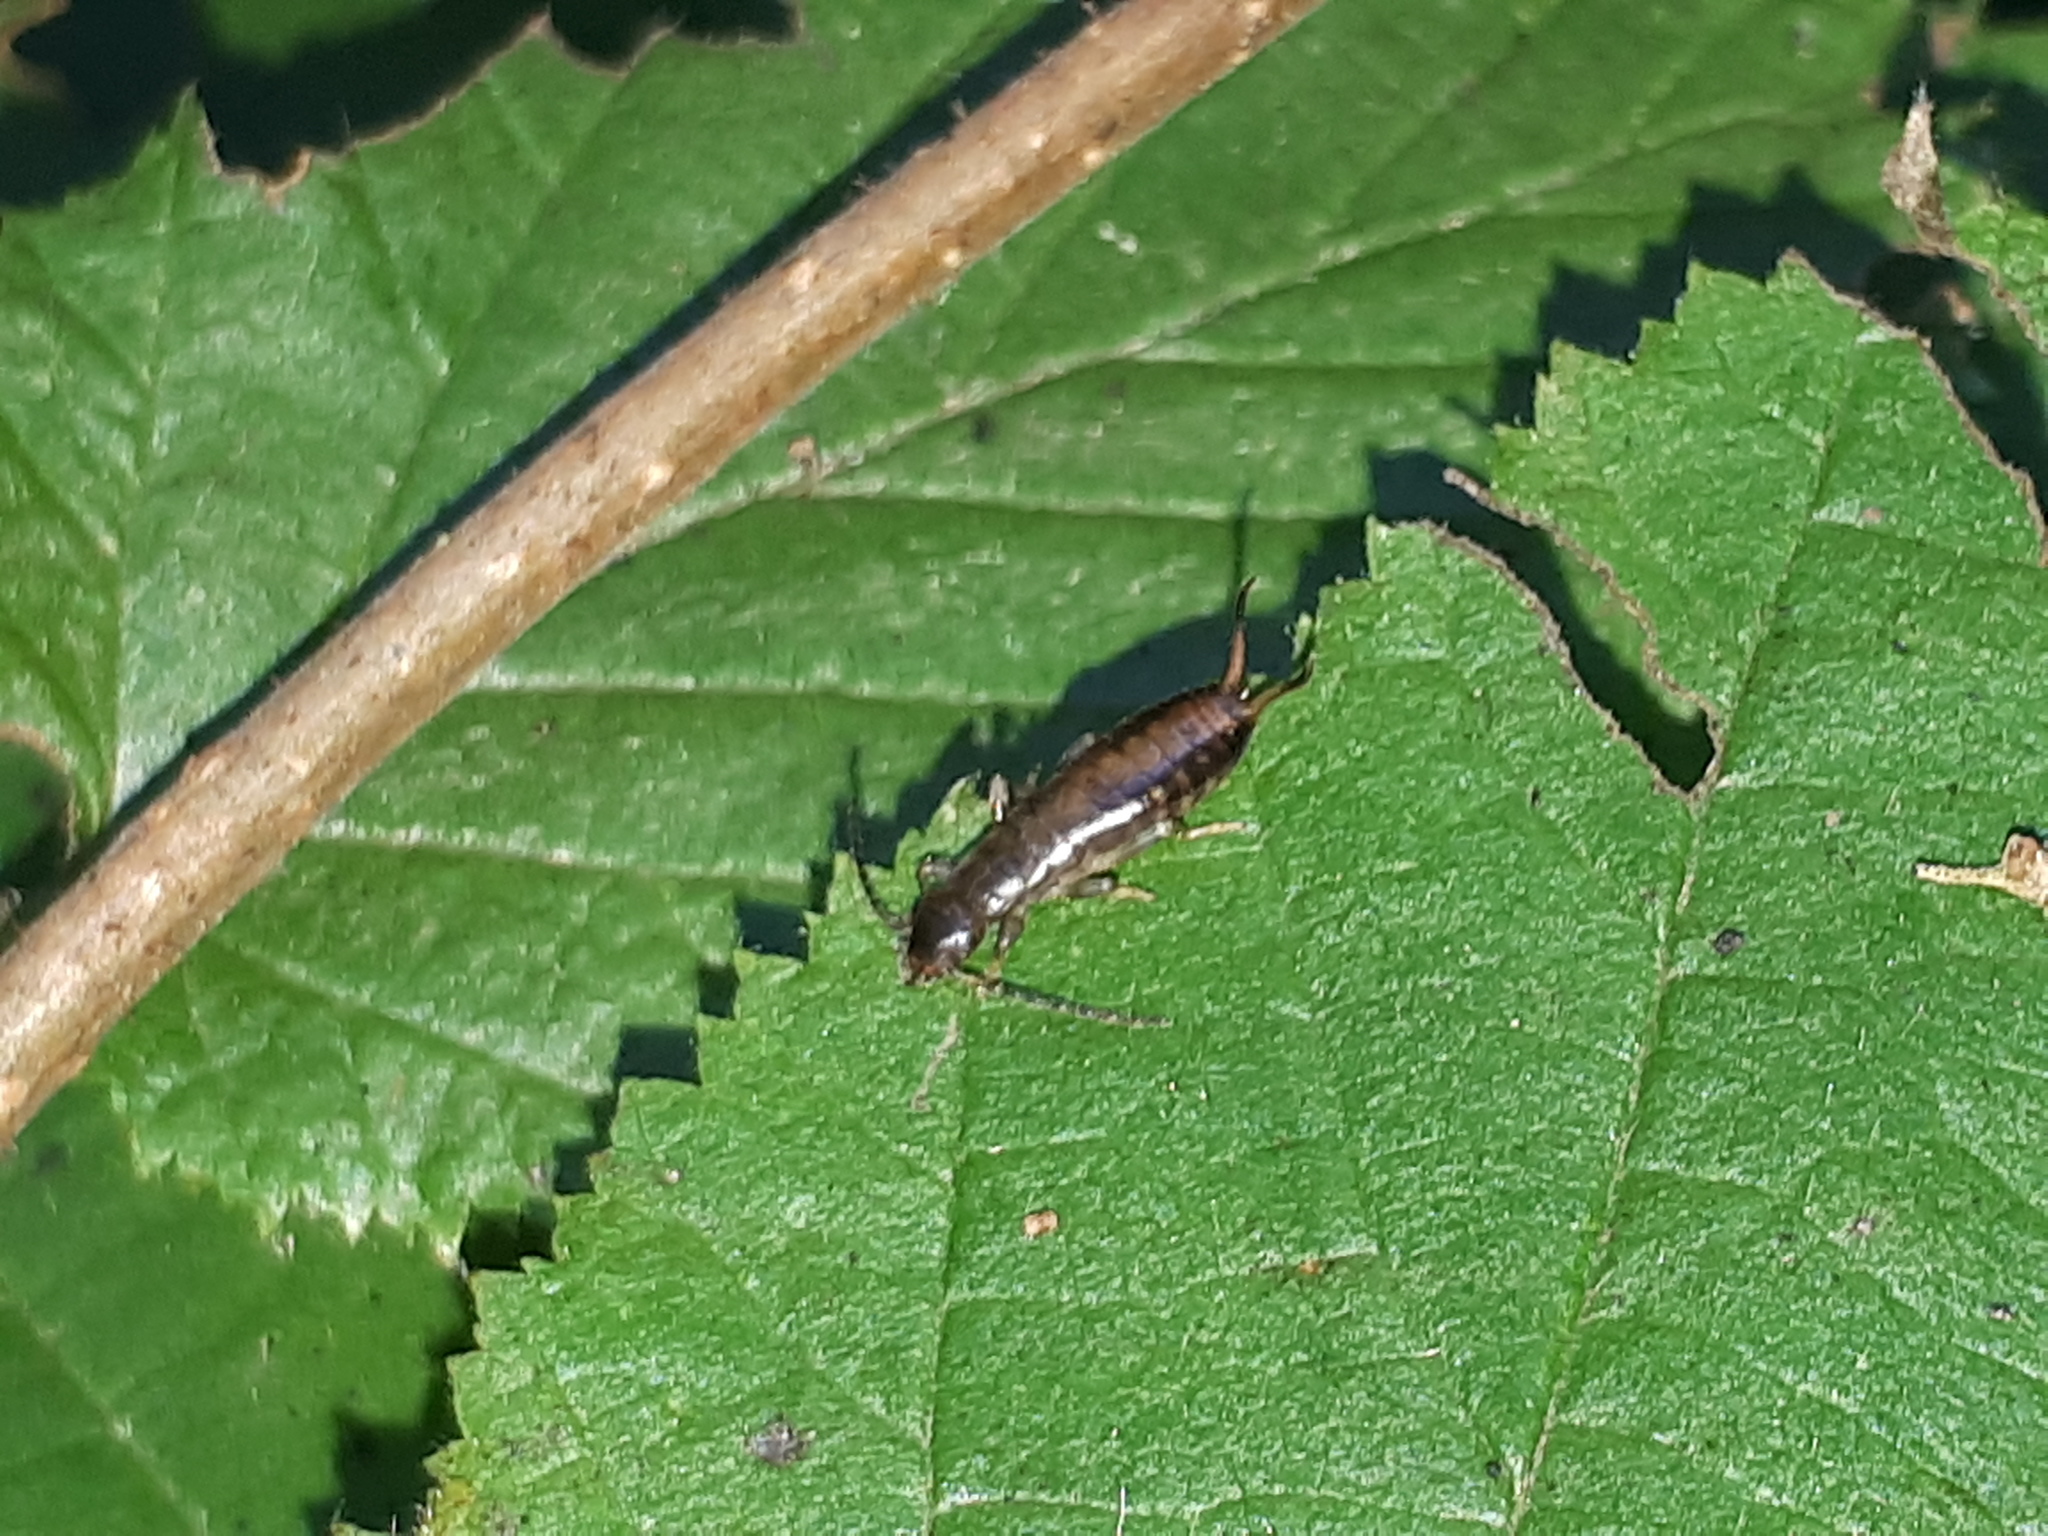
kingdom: Animalia
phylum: Arthropoda
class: Insecta
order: Dermaptera
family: Forficulidae
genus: Apterygida
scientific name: Apterygida albipennis
